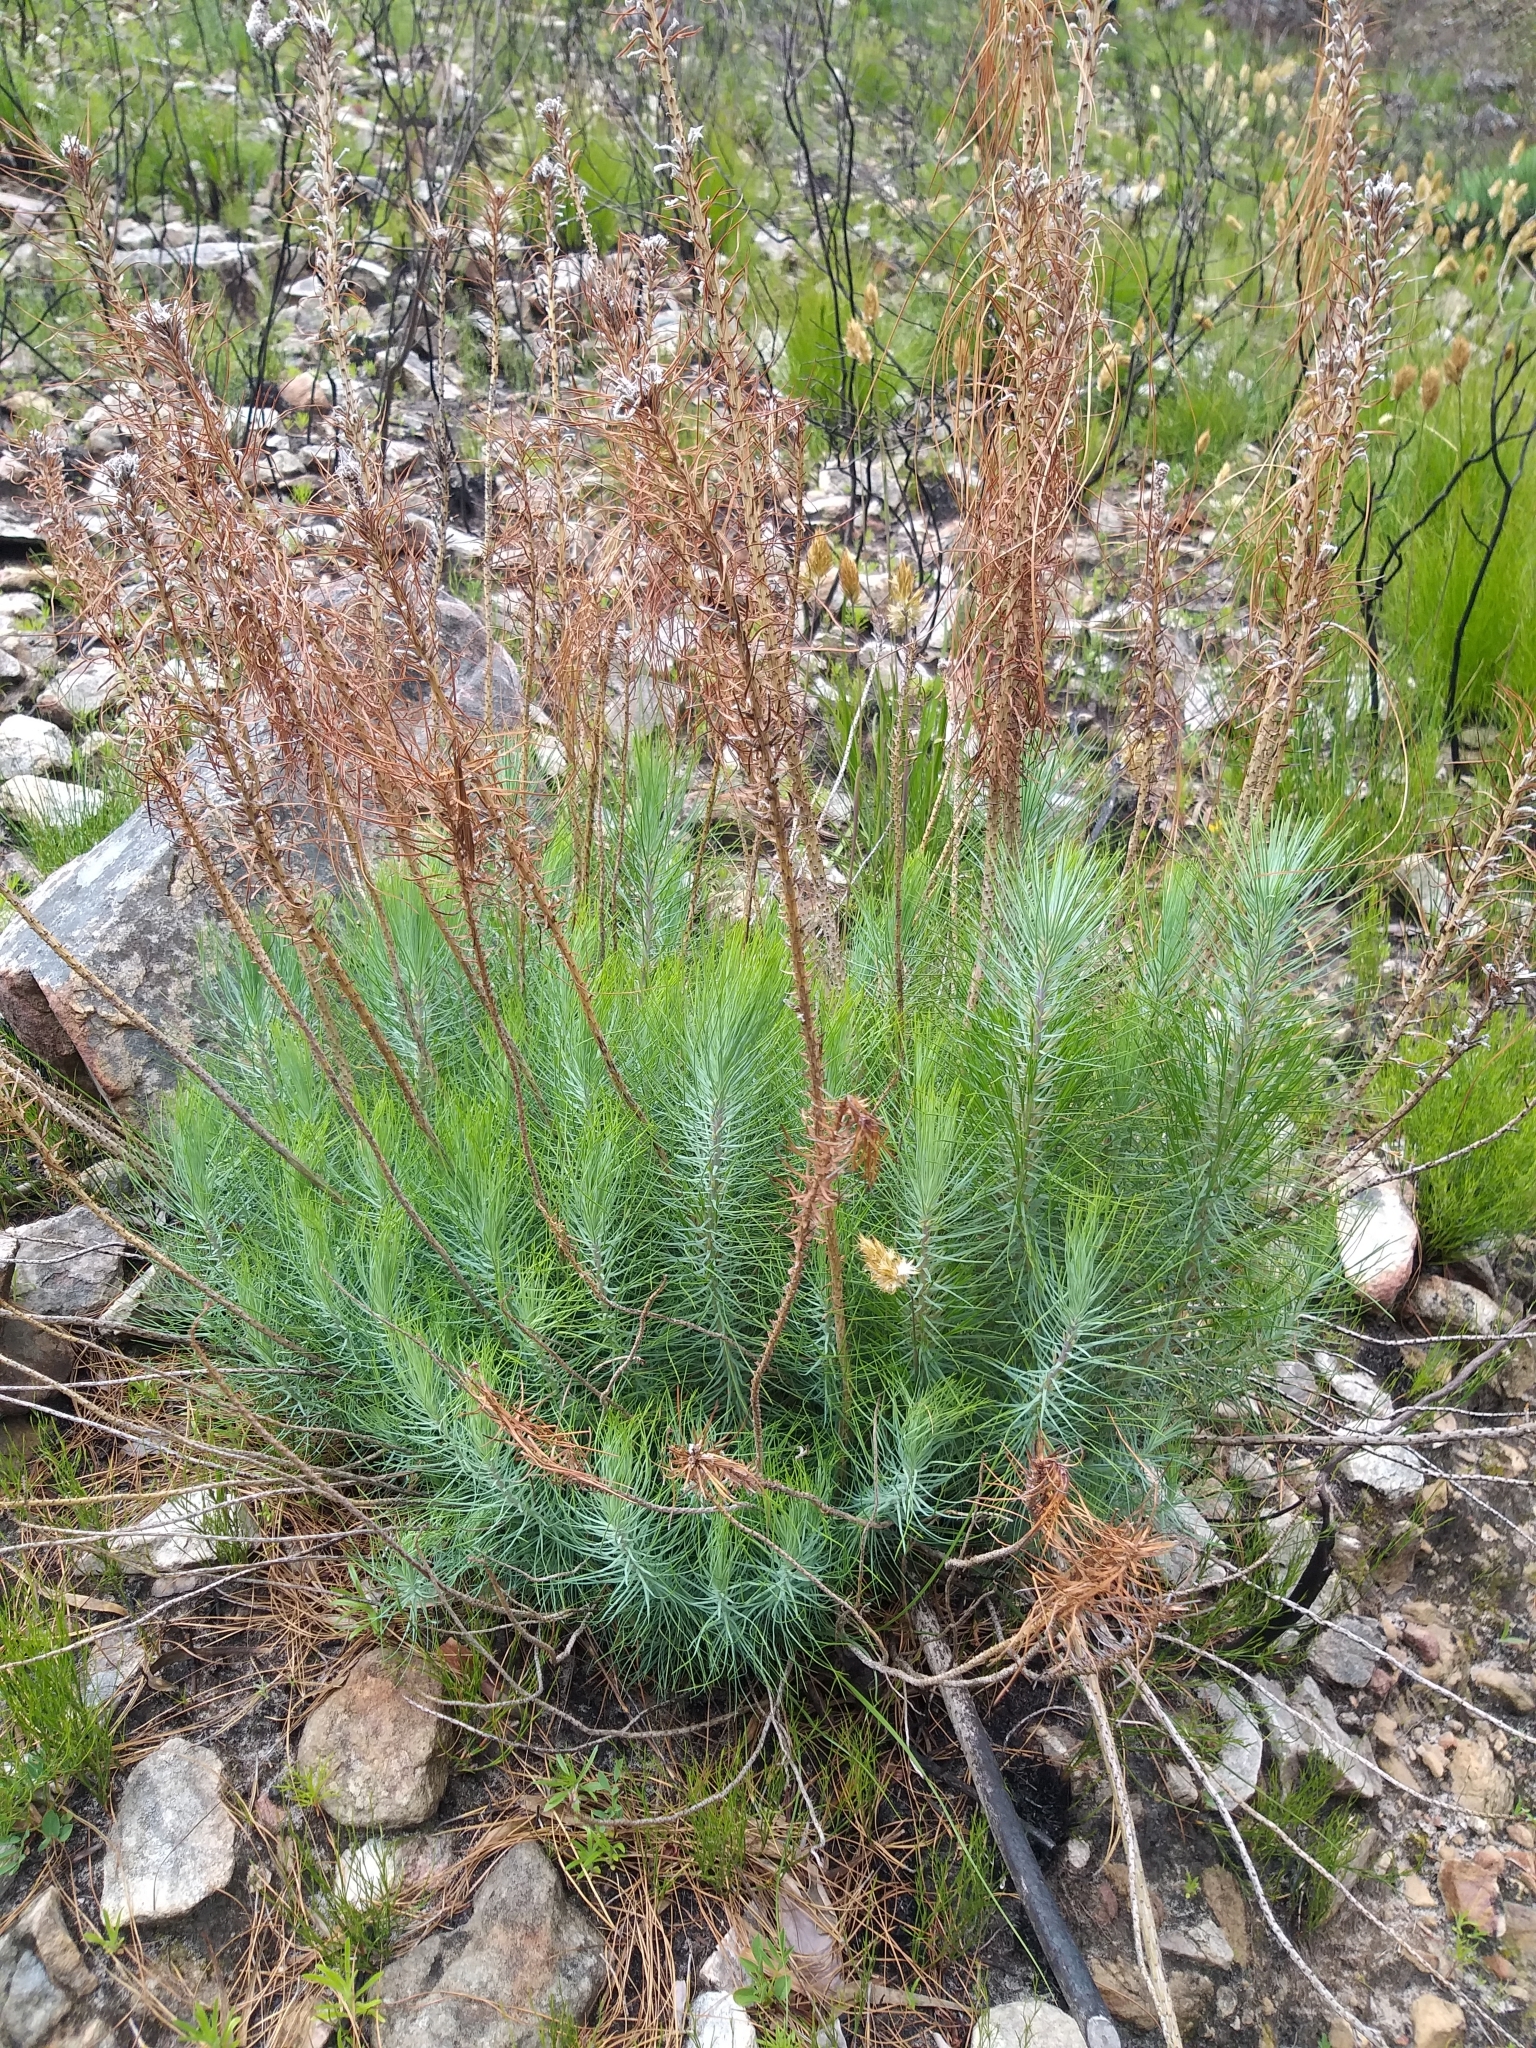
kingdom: Plantae
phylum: Tracheophyta
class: Pinopsida
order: Pinales
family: Pinaceae
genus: Pinus
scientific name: Pinus canariensis
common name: Canary islands pine
